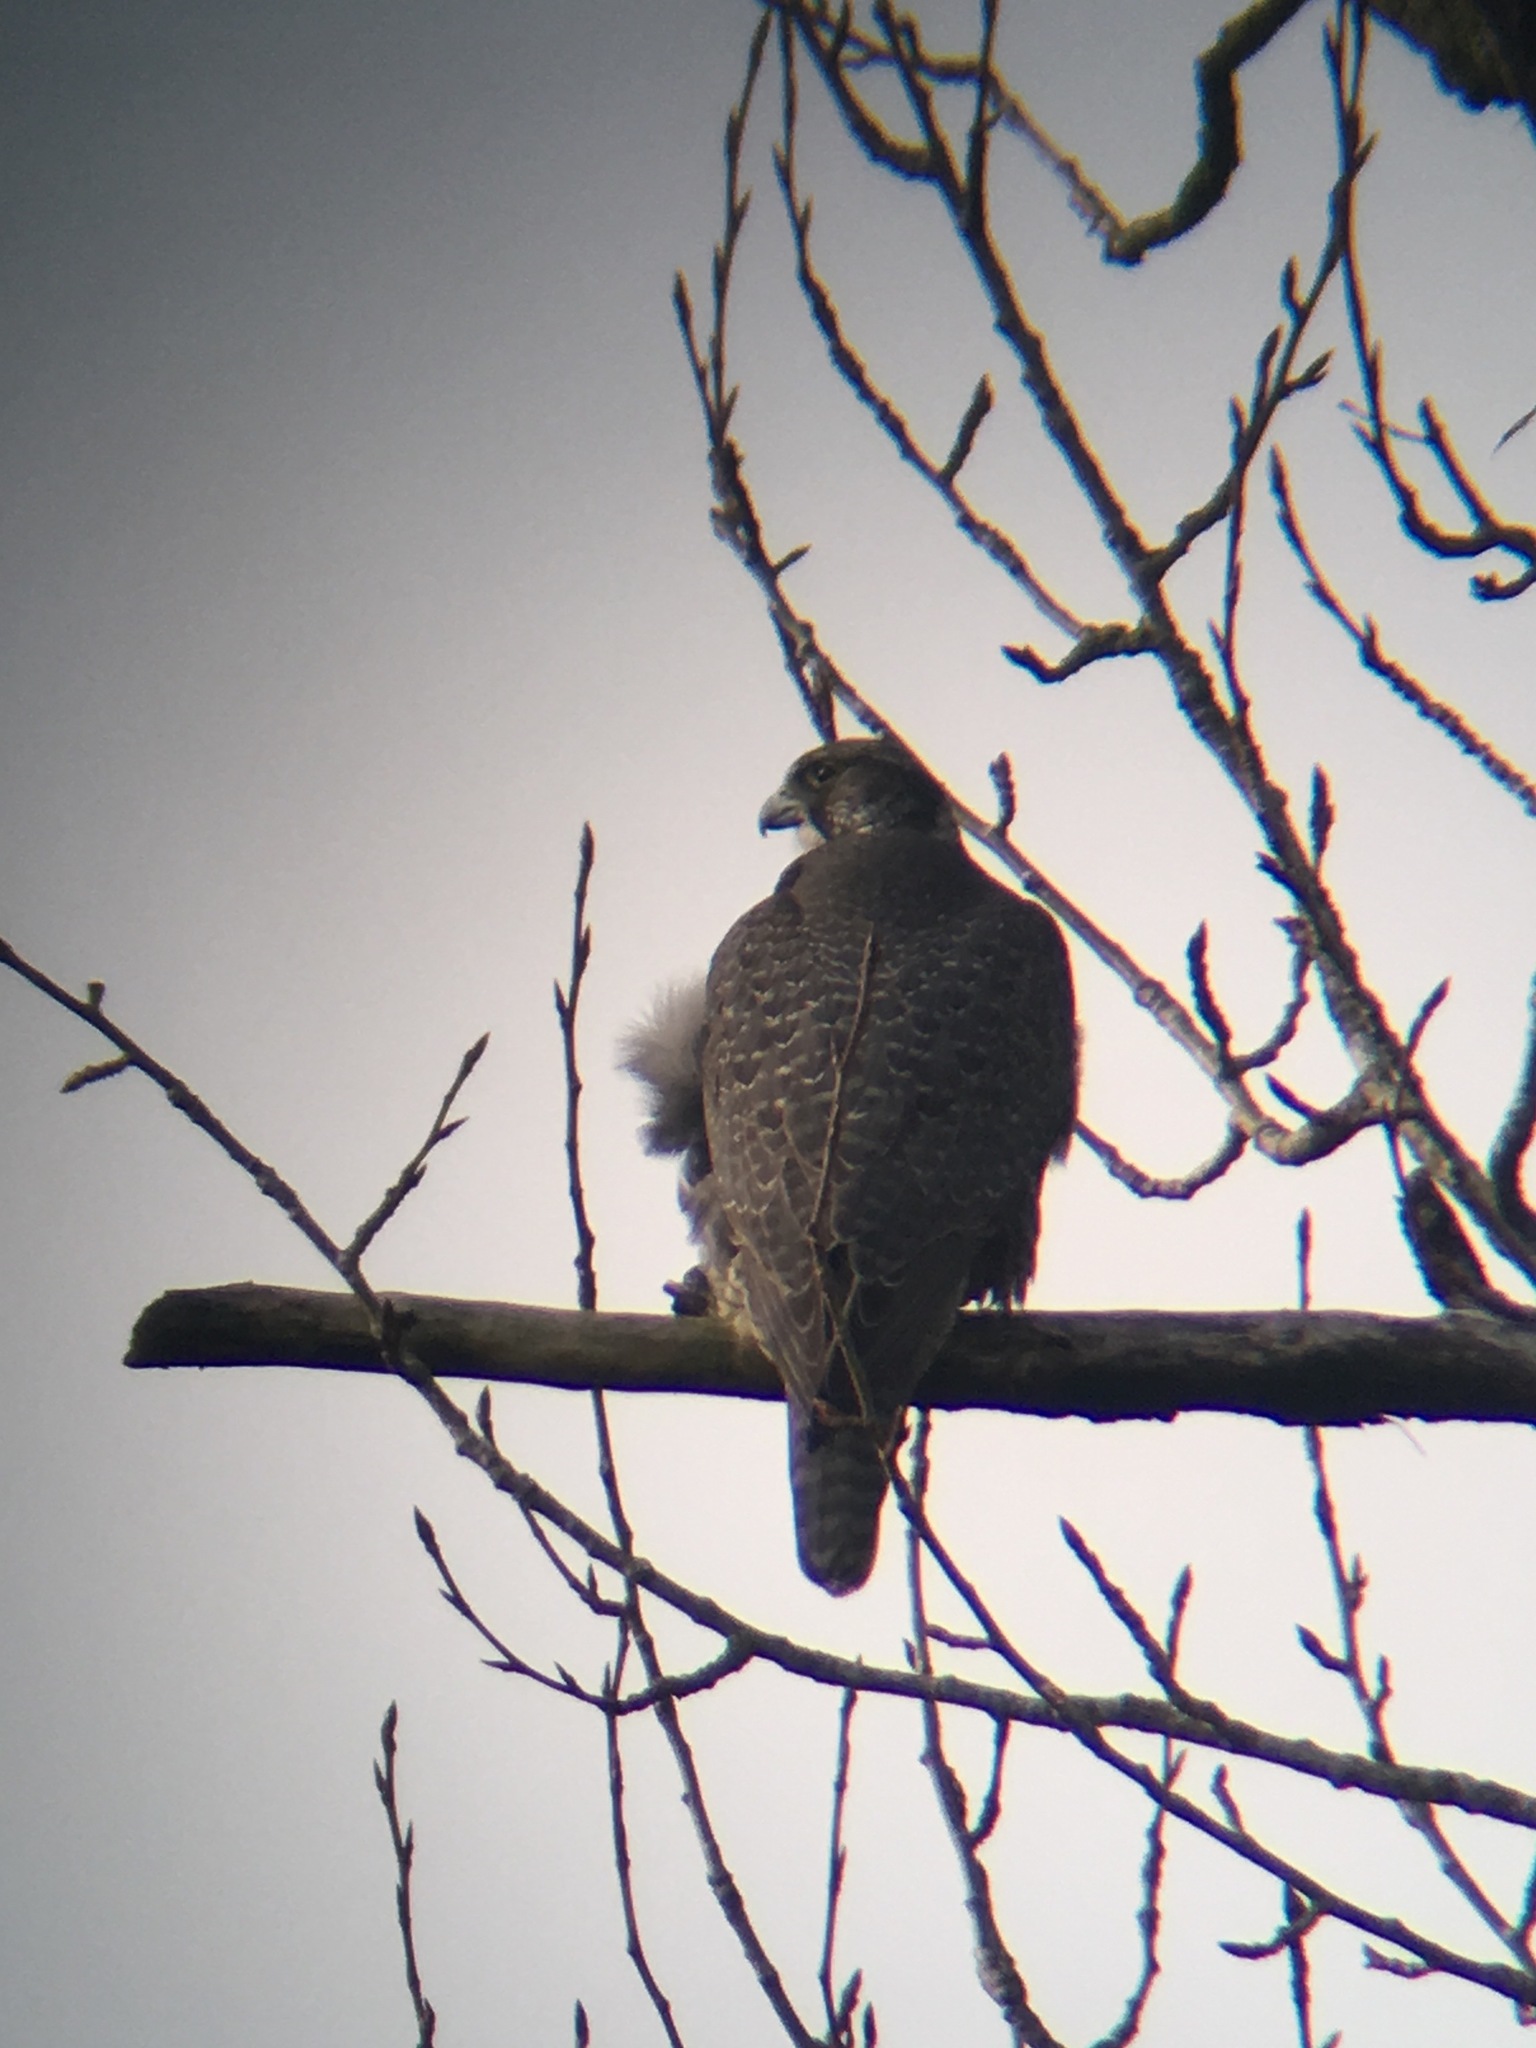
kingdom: Animalia
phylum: Chordata
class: Aves
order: Falconiformes
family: Falconidae
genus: Falco
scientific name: Falco rusticolus
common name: Gyrfalcon
